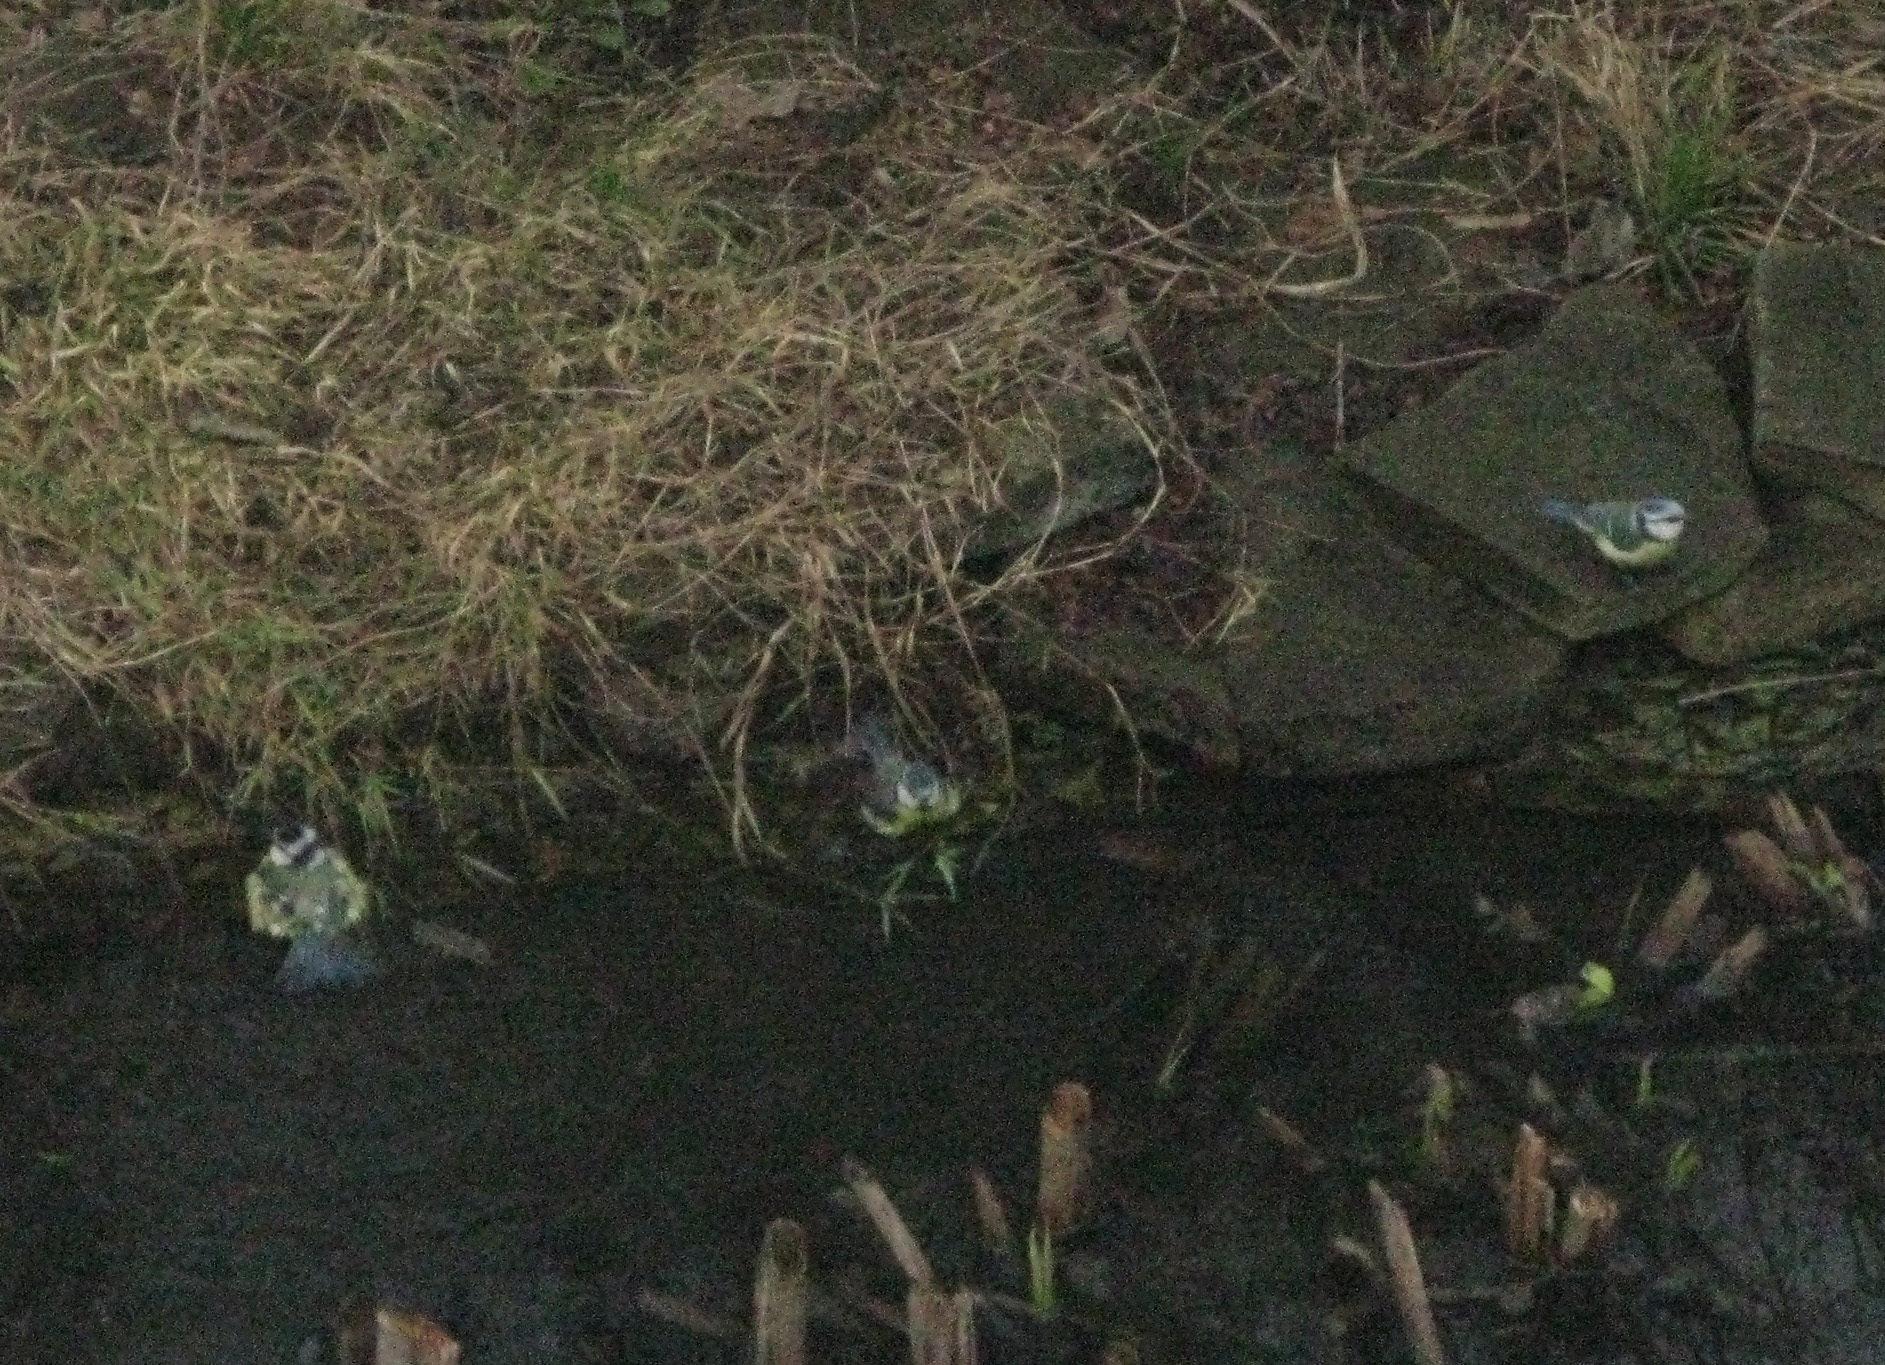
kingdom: Animalia
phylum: Chordata
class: Aves
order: Passeriformes
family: Paridae
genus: Cyanistes
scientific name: Cyanistes caeruleus
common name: Eurasian blue tit
